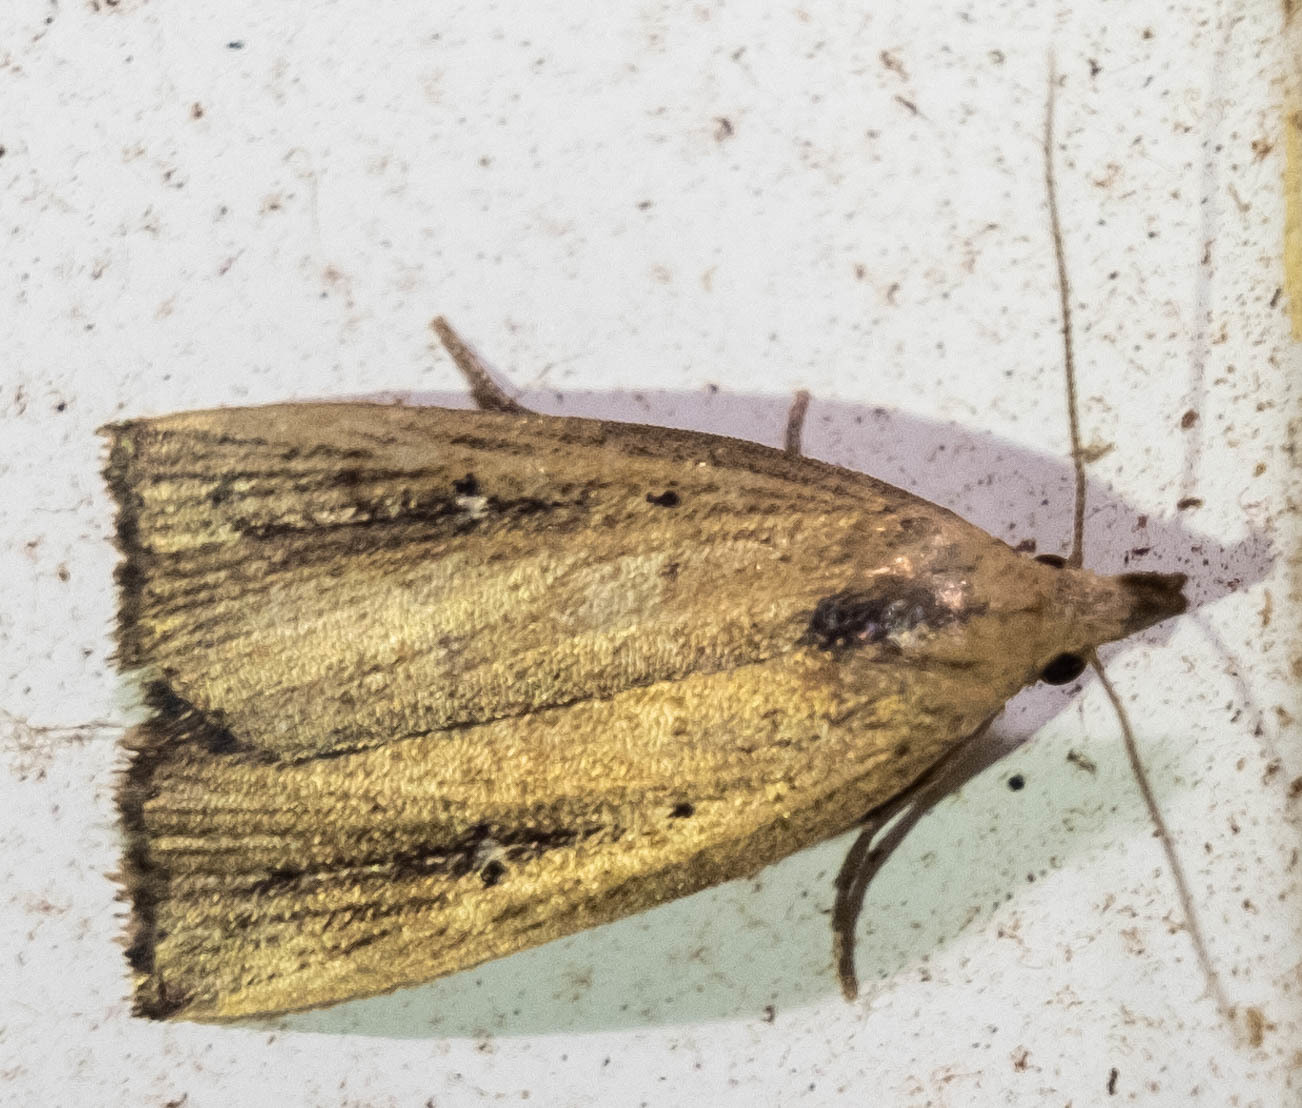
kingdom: Animalia
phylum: Arthropoda
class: Insecta
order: Lepidoptera
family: Erebidae
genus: Macrochilo
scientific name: Macrochilo orciferalis
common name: Bronzy owlet
